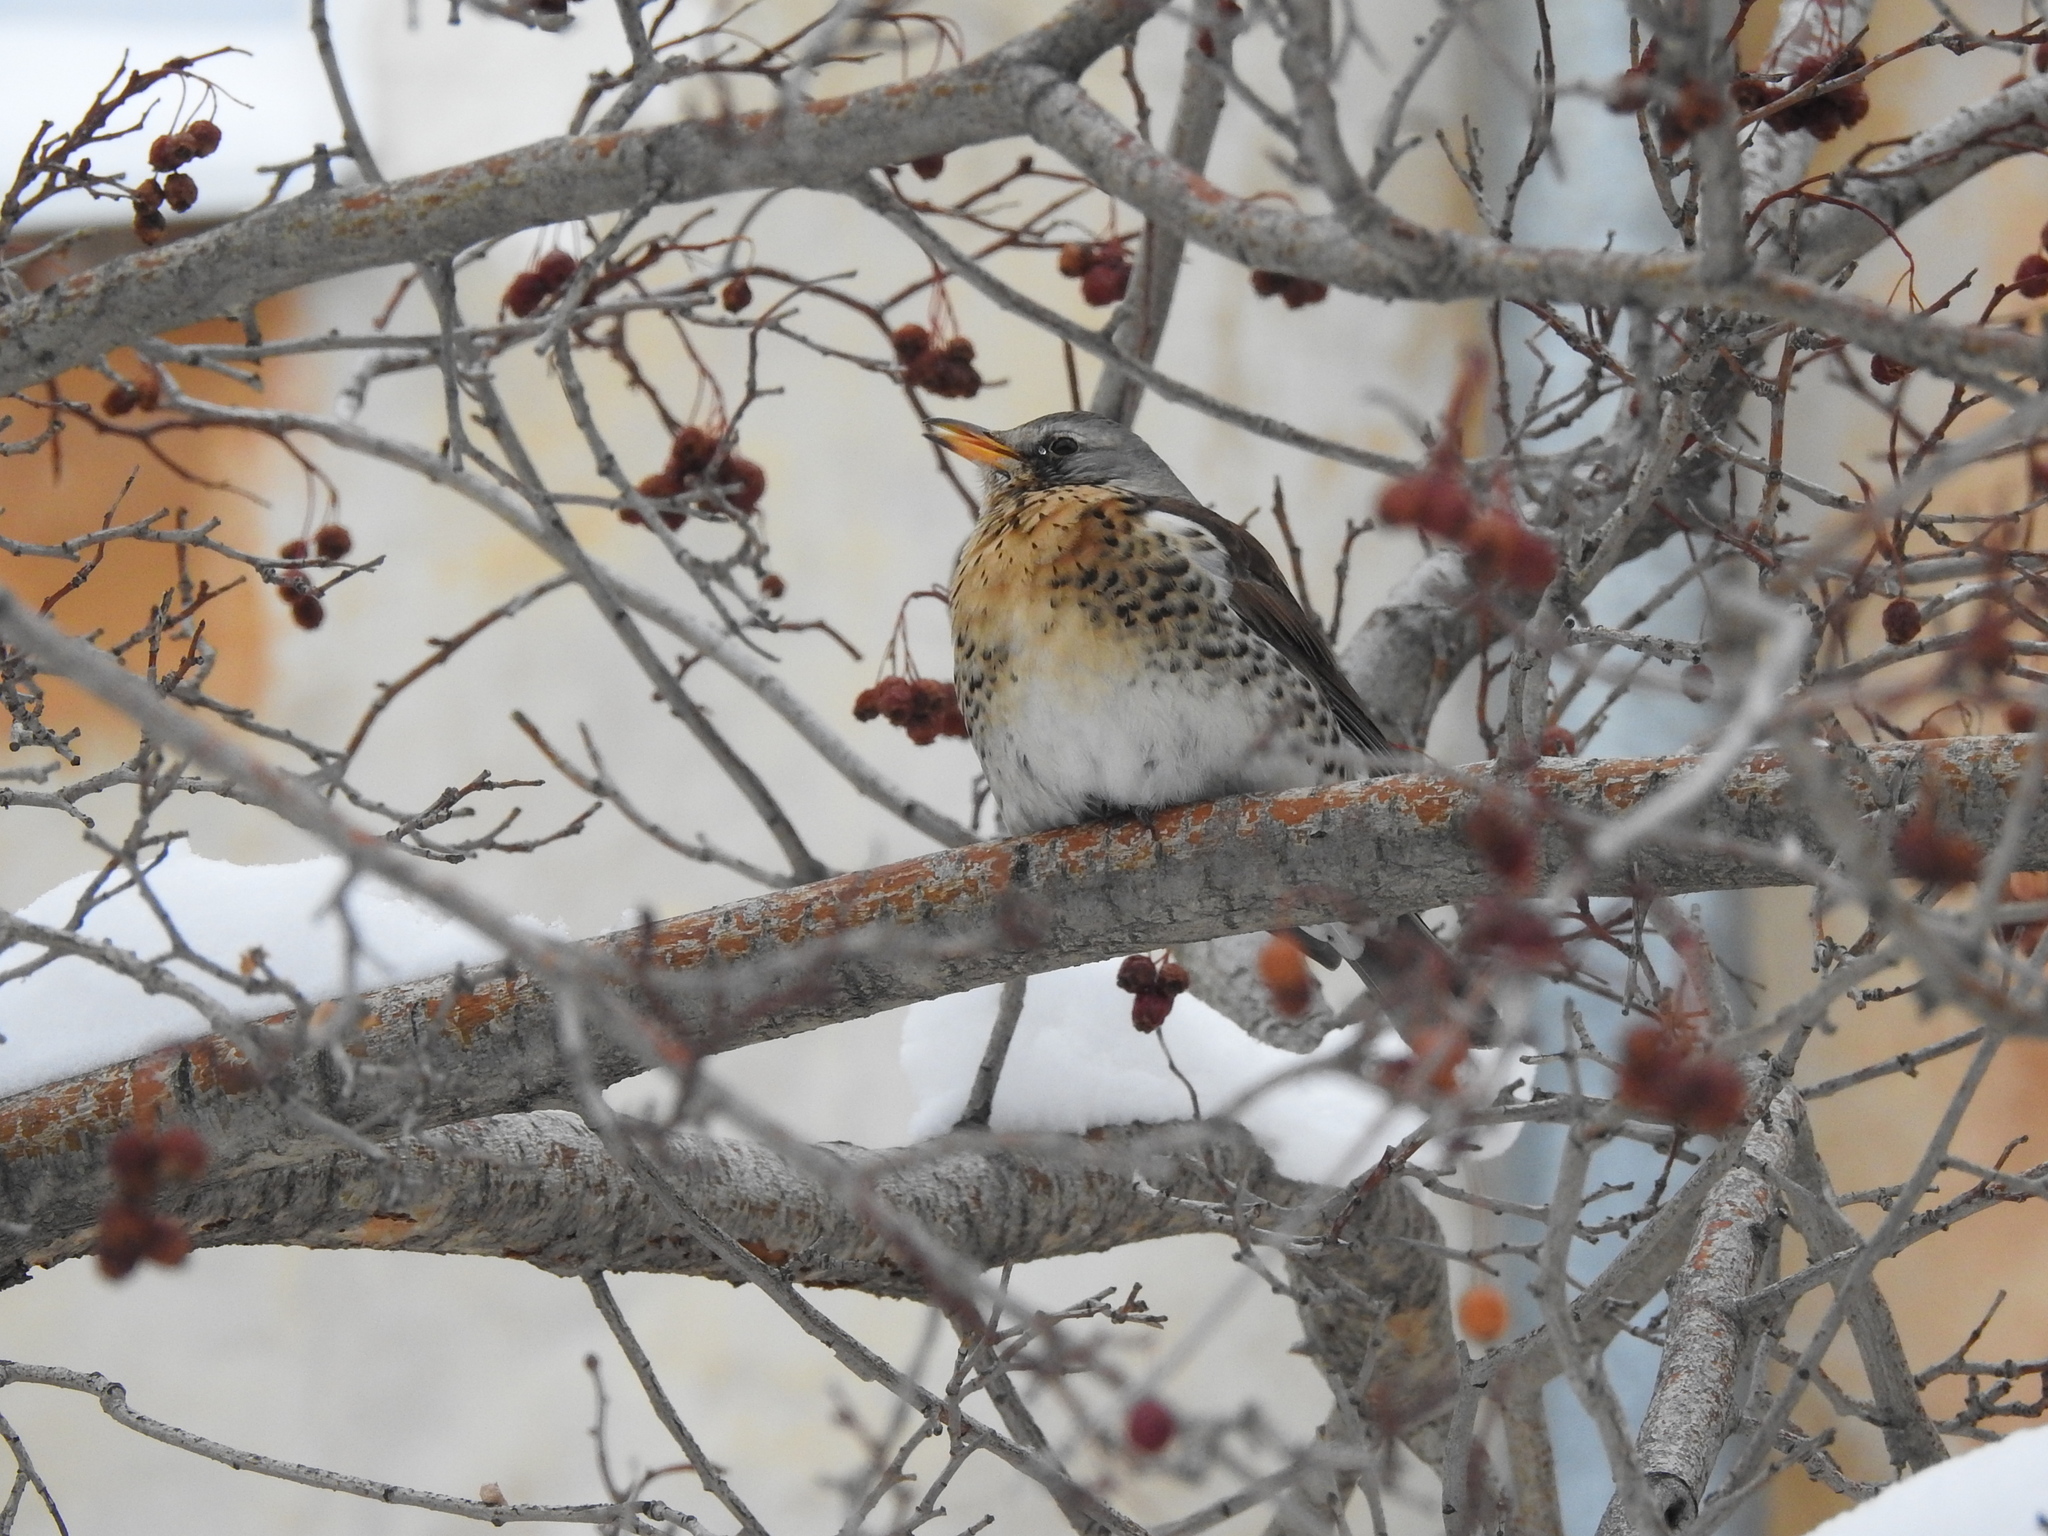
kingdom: Animalia
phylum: Chordata
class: Aves
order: Passeriformes
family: Turdidae
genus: Turdus
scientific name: Turdus pilaris
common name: Fieldfare
